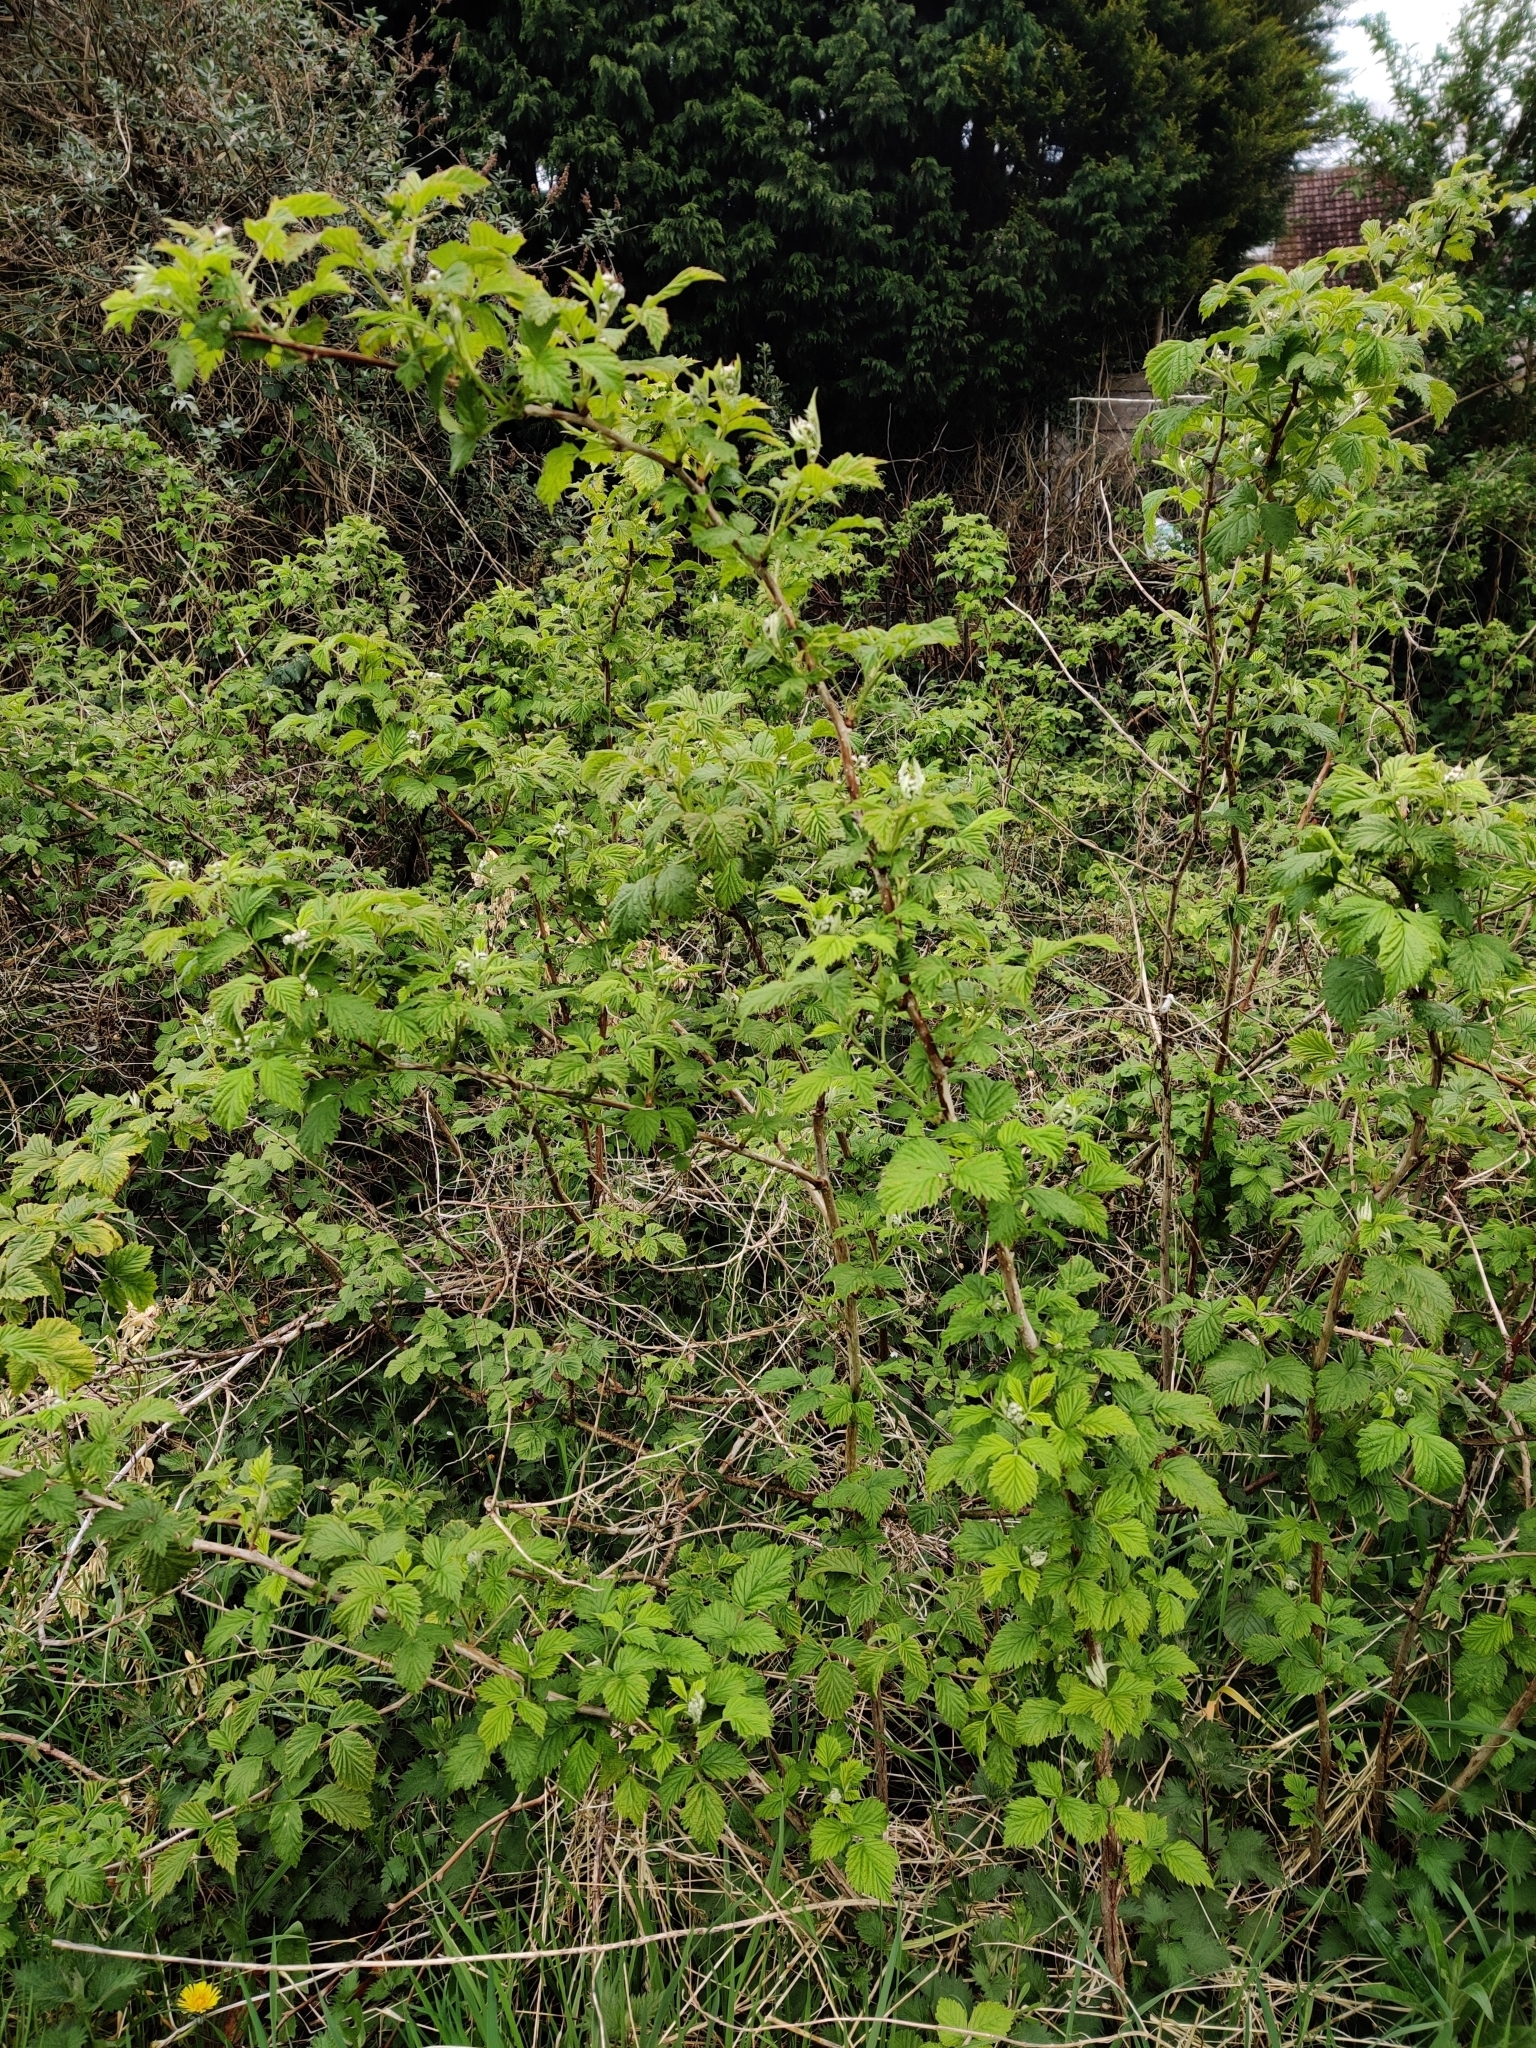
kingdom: Plantae
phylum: Tracheophyta
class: Magnoliopsida
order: Rosales
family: Rosaceae
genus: Rubus
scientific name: Rubus idaeus
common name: Raspberry
